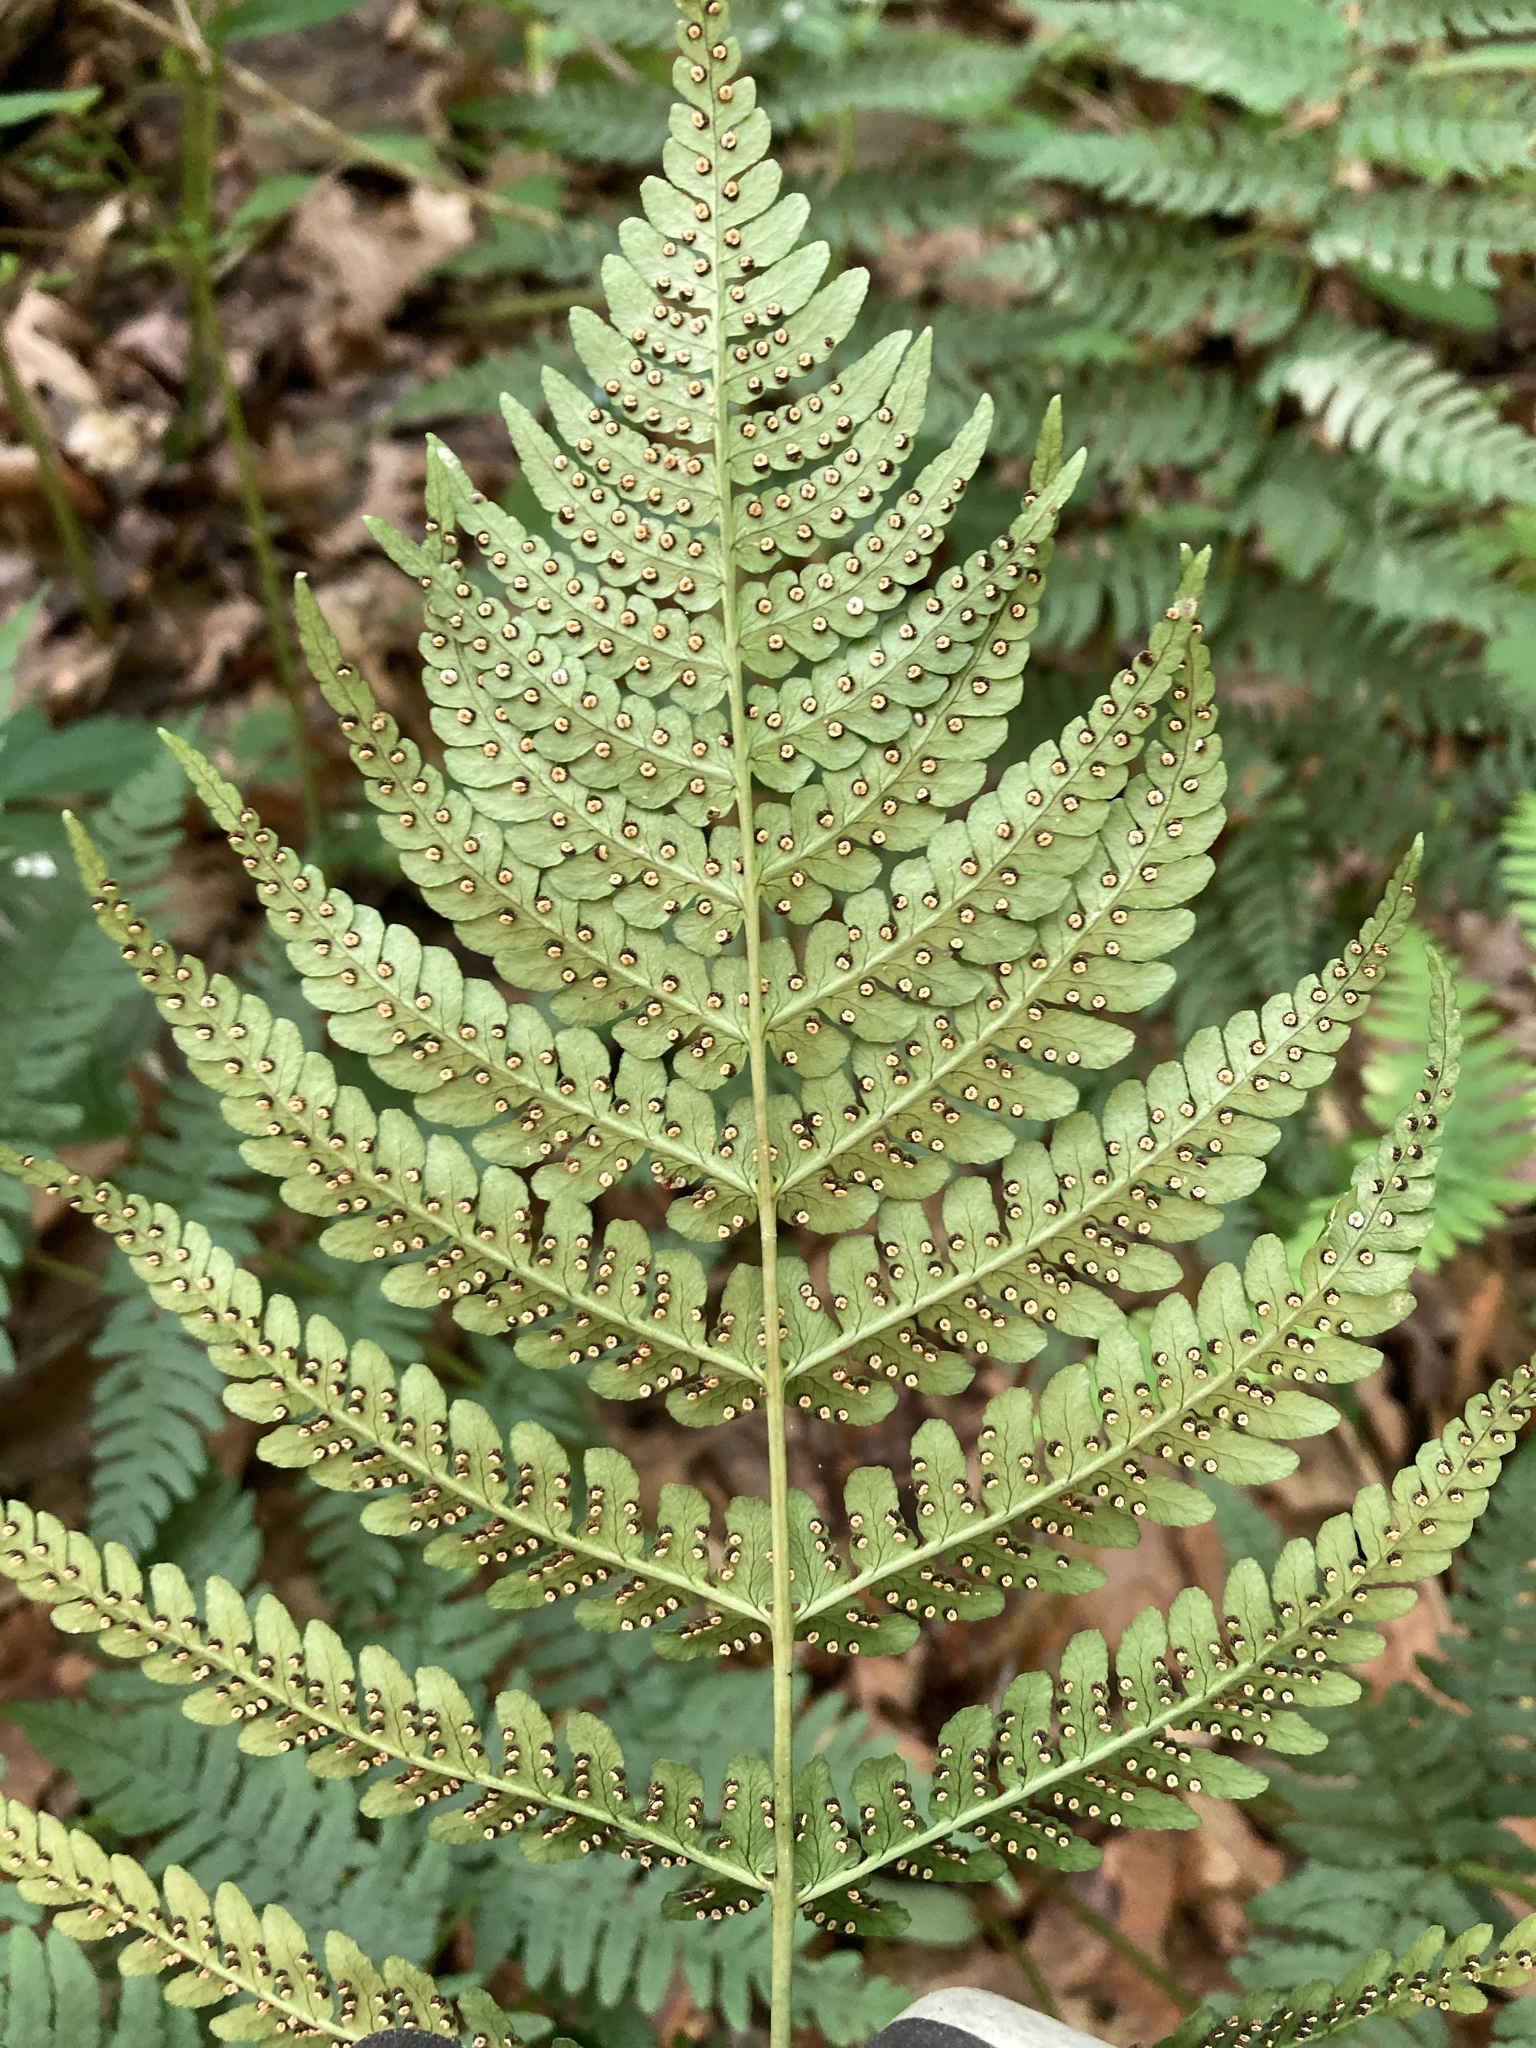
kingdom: Plantae
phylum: Tracheophyta
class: Polypodiopsida
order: Polypodiales
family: Dryopteridaceae
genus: Dryopteris
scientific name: Dryopteris marginalis
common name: Marginal wood fern
